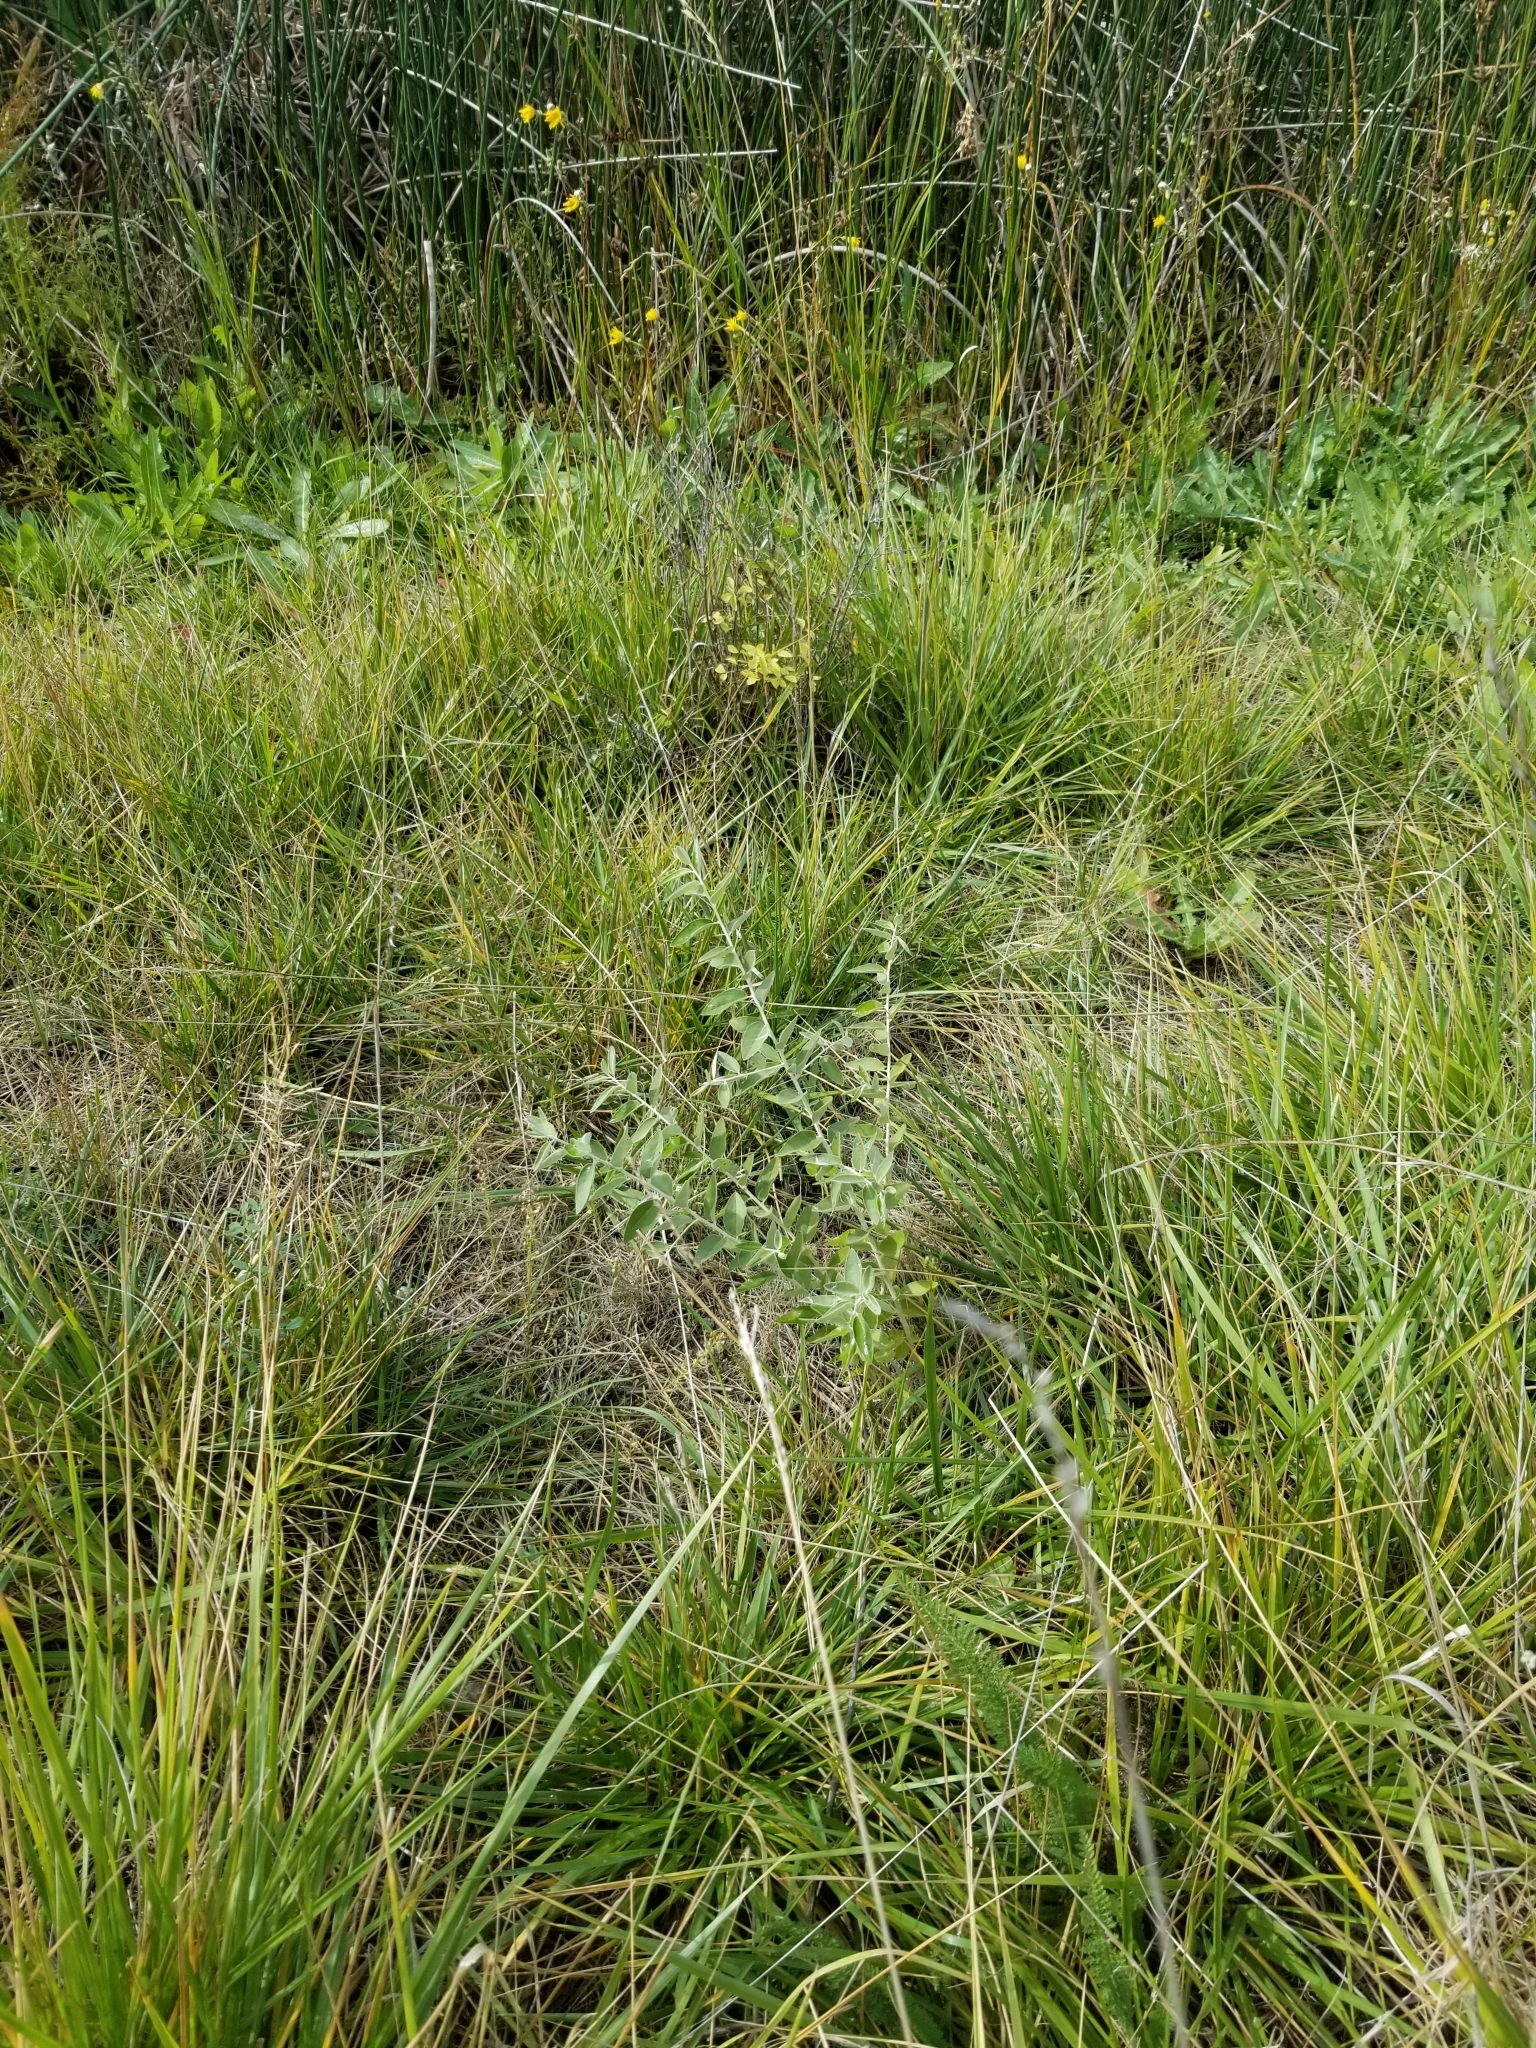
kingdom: Plantae
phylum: Tracheophyta
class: Magnoliopsida
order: Rosales
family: Elaeagnaceae
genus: Elaeagnus
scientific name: Elaeagnus angustifolia
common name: Russian olive
